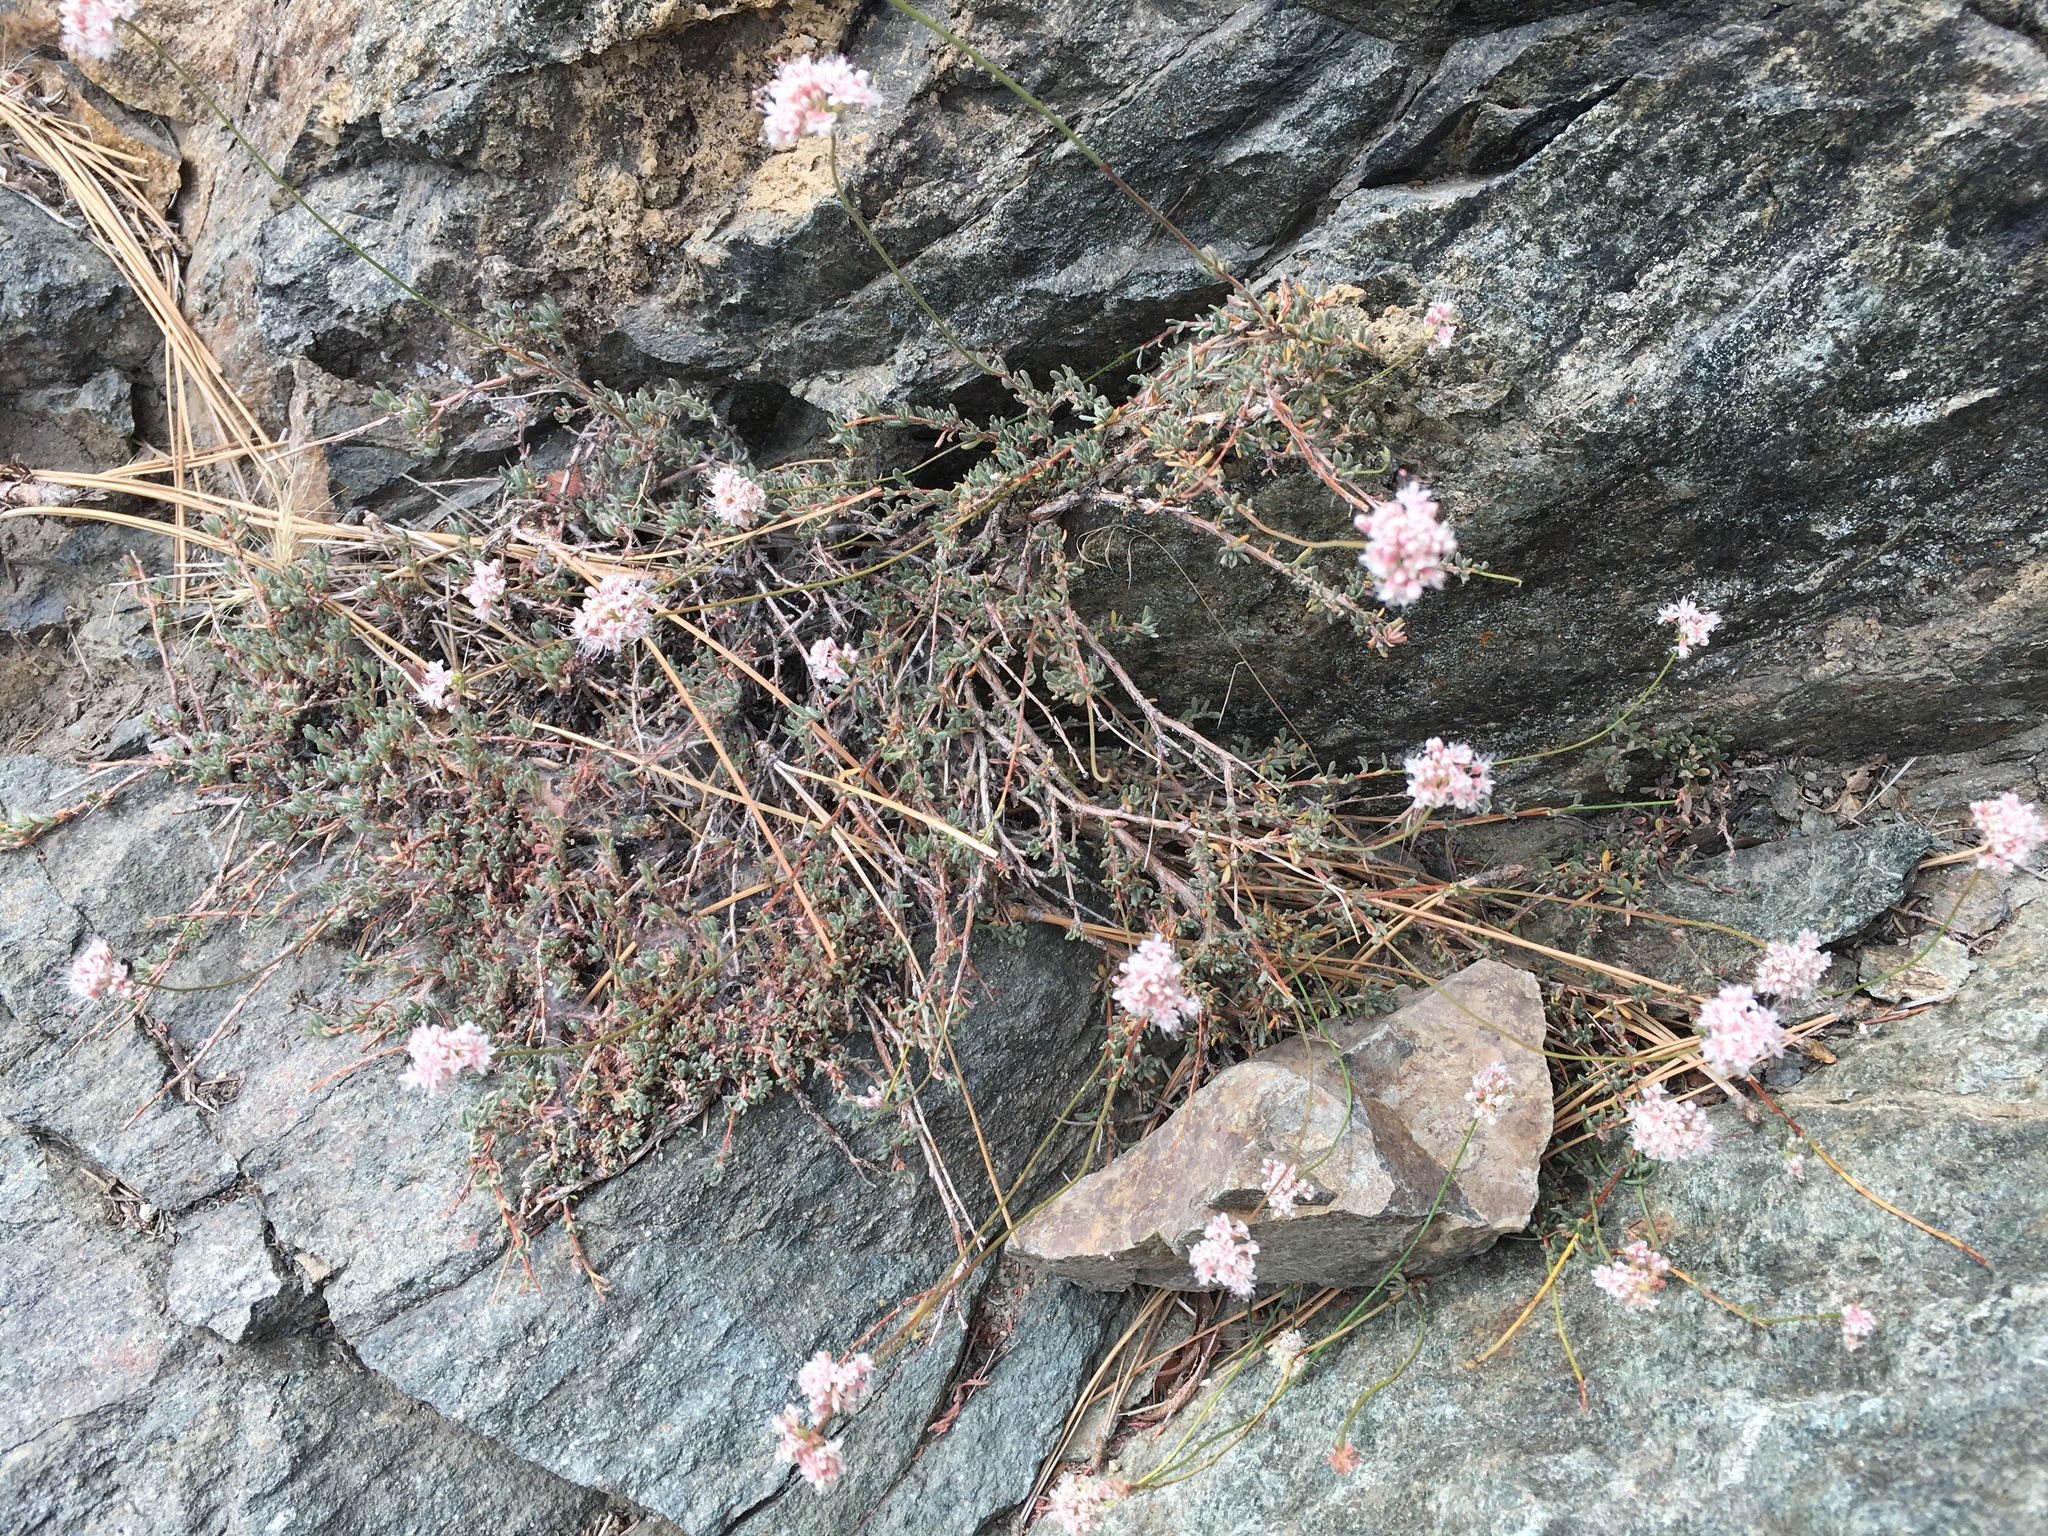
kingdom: Plantae
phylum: Tracheophyta
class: Magnoliopsida
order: Caryophyllales
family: Polygonaceae
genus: Eriogonum
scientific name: Eriogonum fasciculatum
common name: California wild buckwheat
